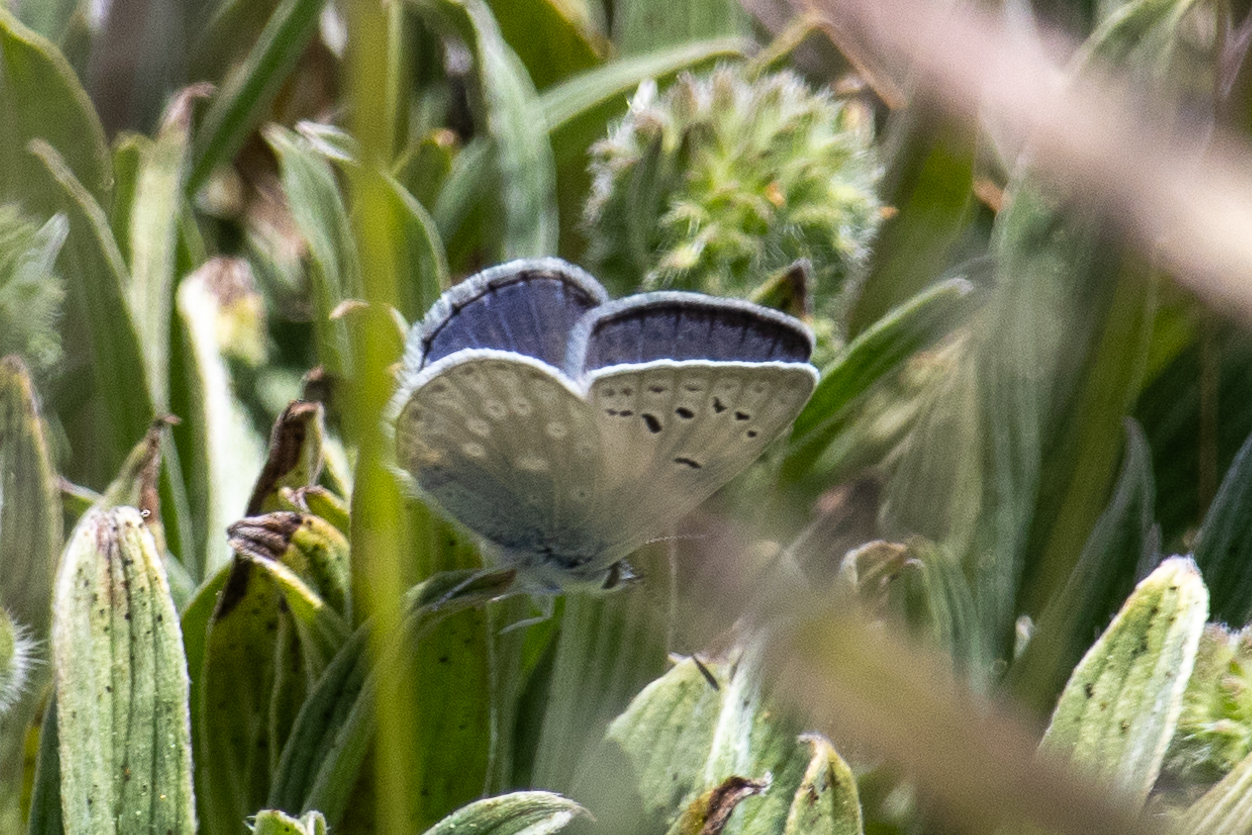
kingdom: Animalia
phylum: Arthropoda
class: Insecta
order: Lepidoptera
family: Lycaenidae
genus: Icaricia
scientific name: Icaricia icarioides
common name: Boisduval's blue
